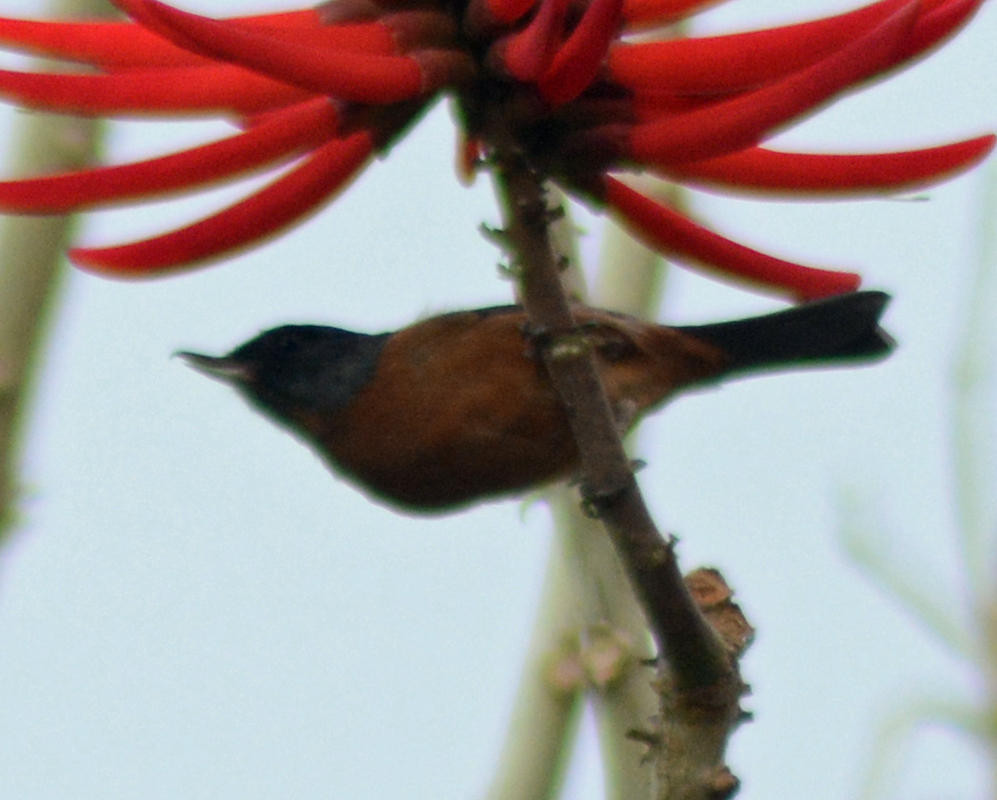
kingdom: Animalia
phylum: Chordata
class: Aves
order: Passeriformes
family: Thraupidae
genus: Diglossa
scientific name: Diglossa baritula
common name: Cinnamon-bellied flowerpiercer
